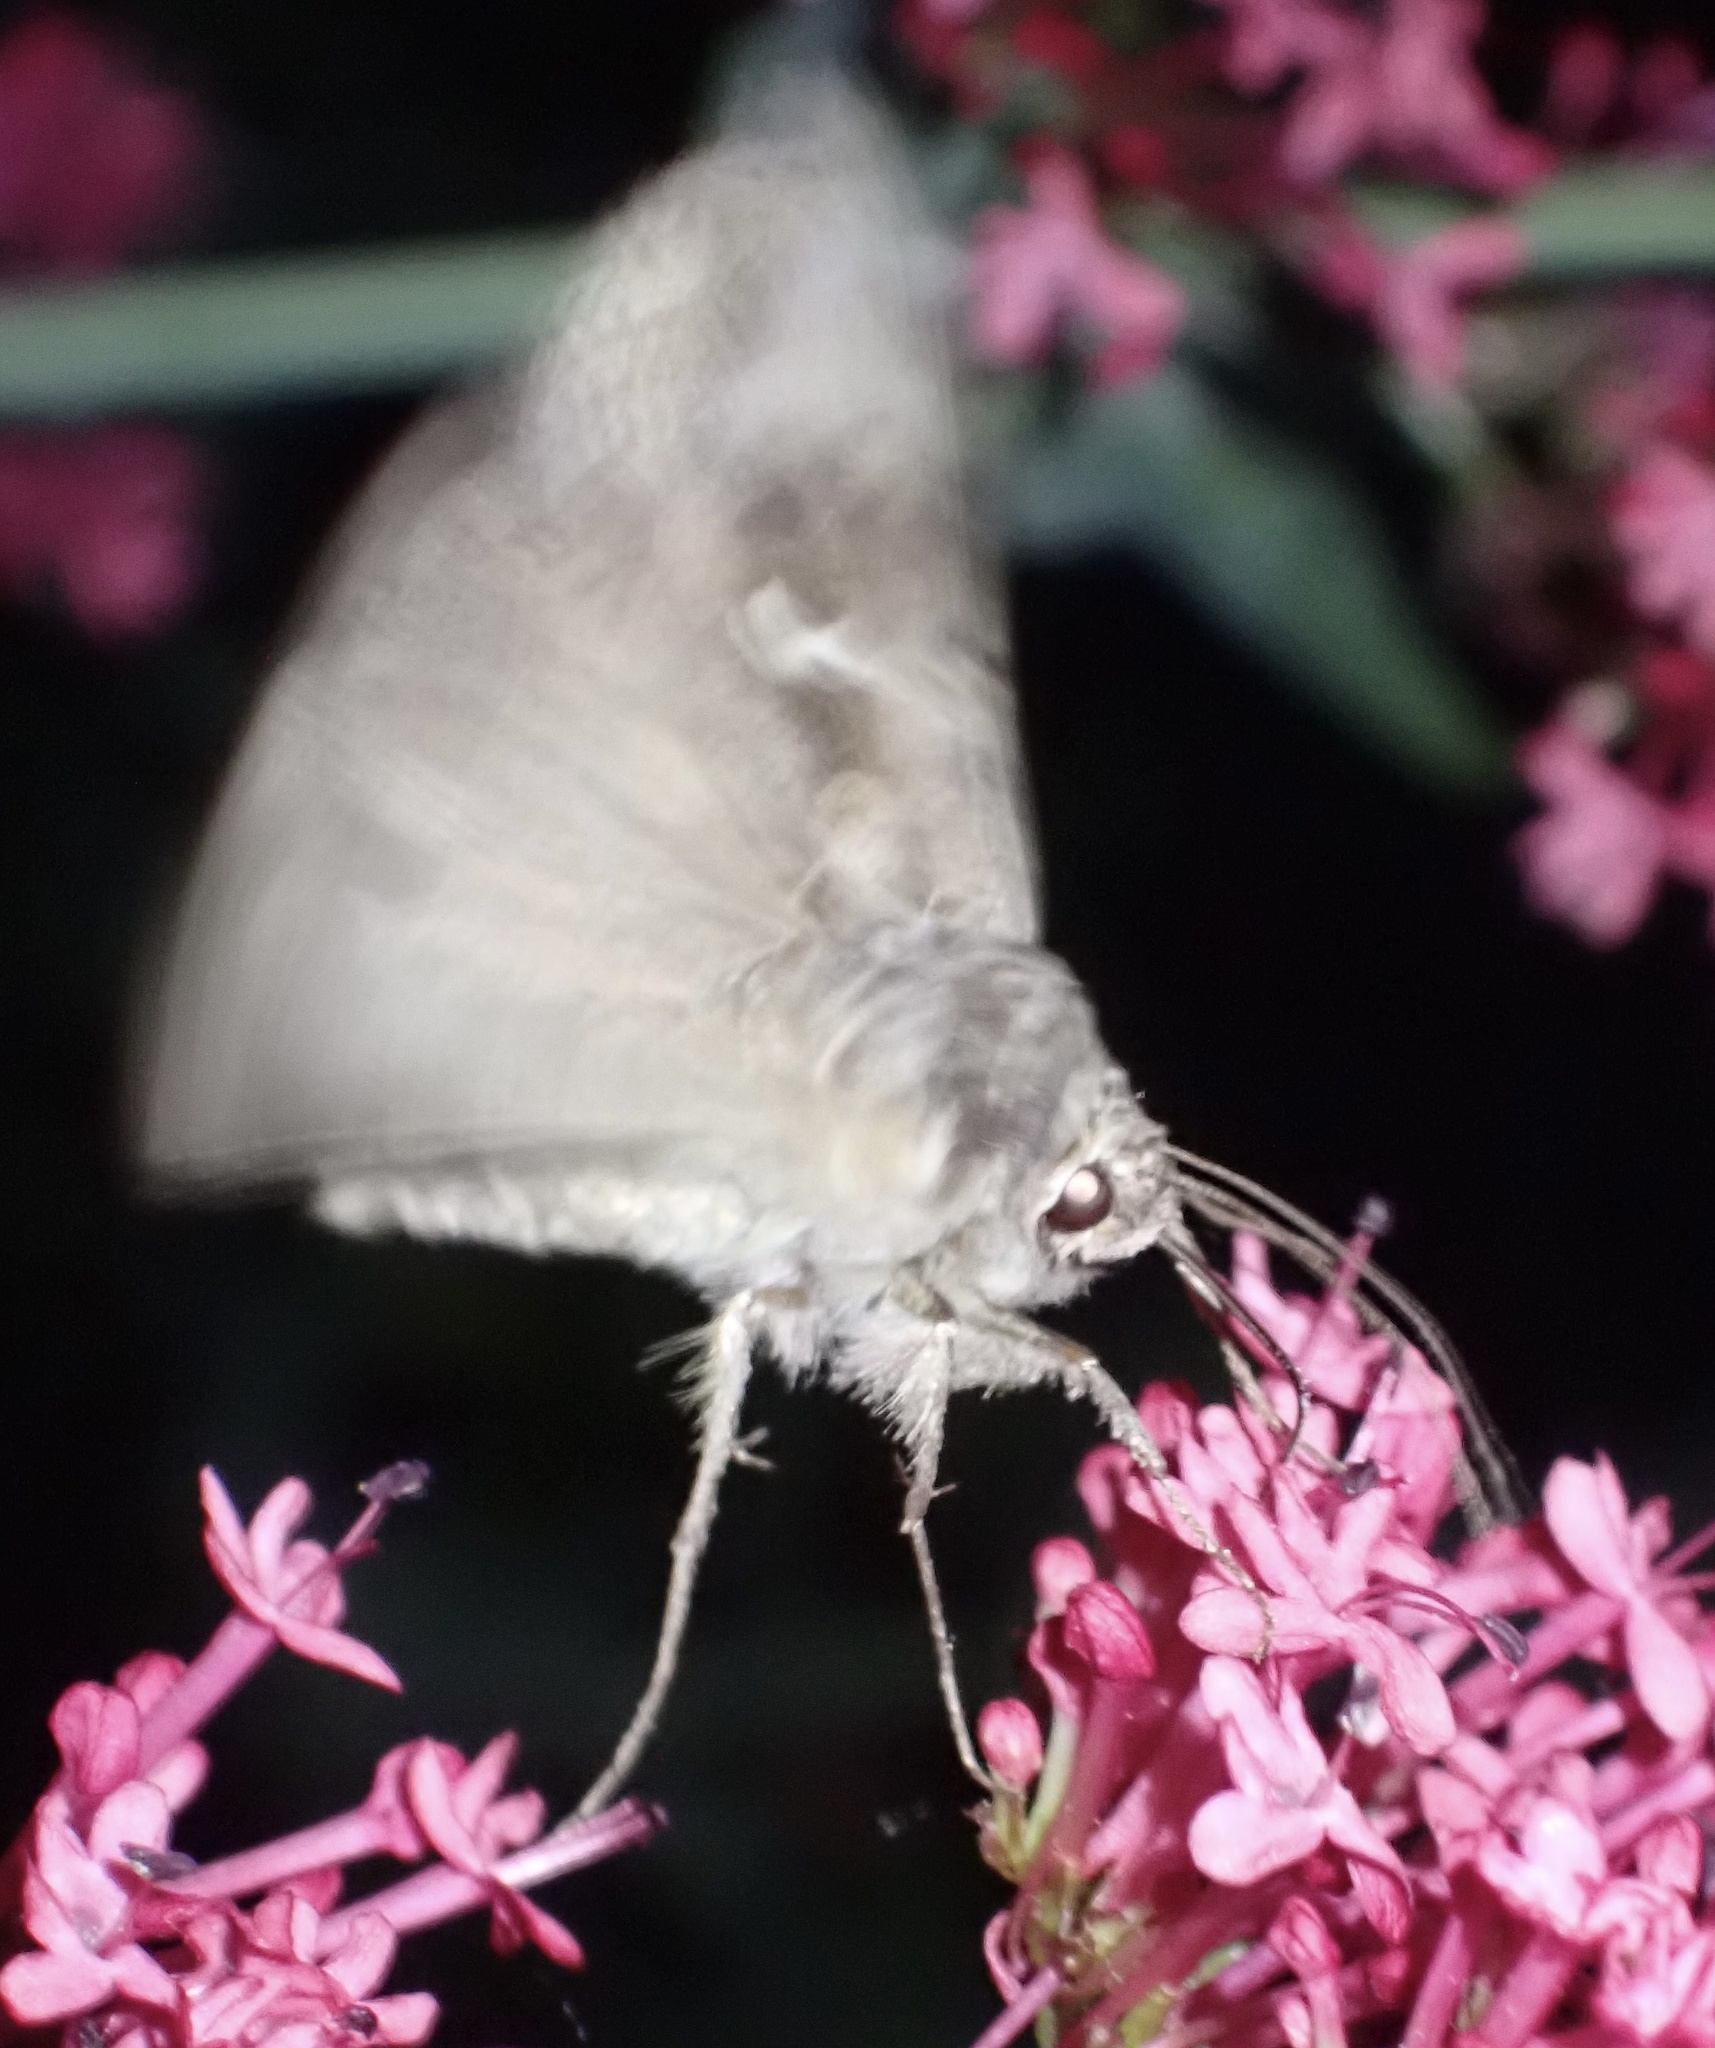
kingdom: Animalia
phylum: Arthropoda
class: Insecta
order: Lepidoptera
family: Noctuidae
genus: Autographa
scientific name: Autographa gamma
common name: Silver y
